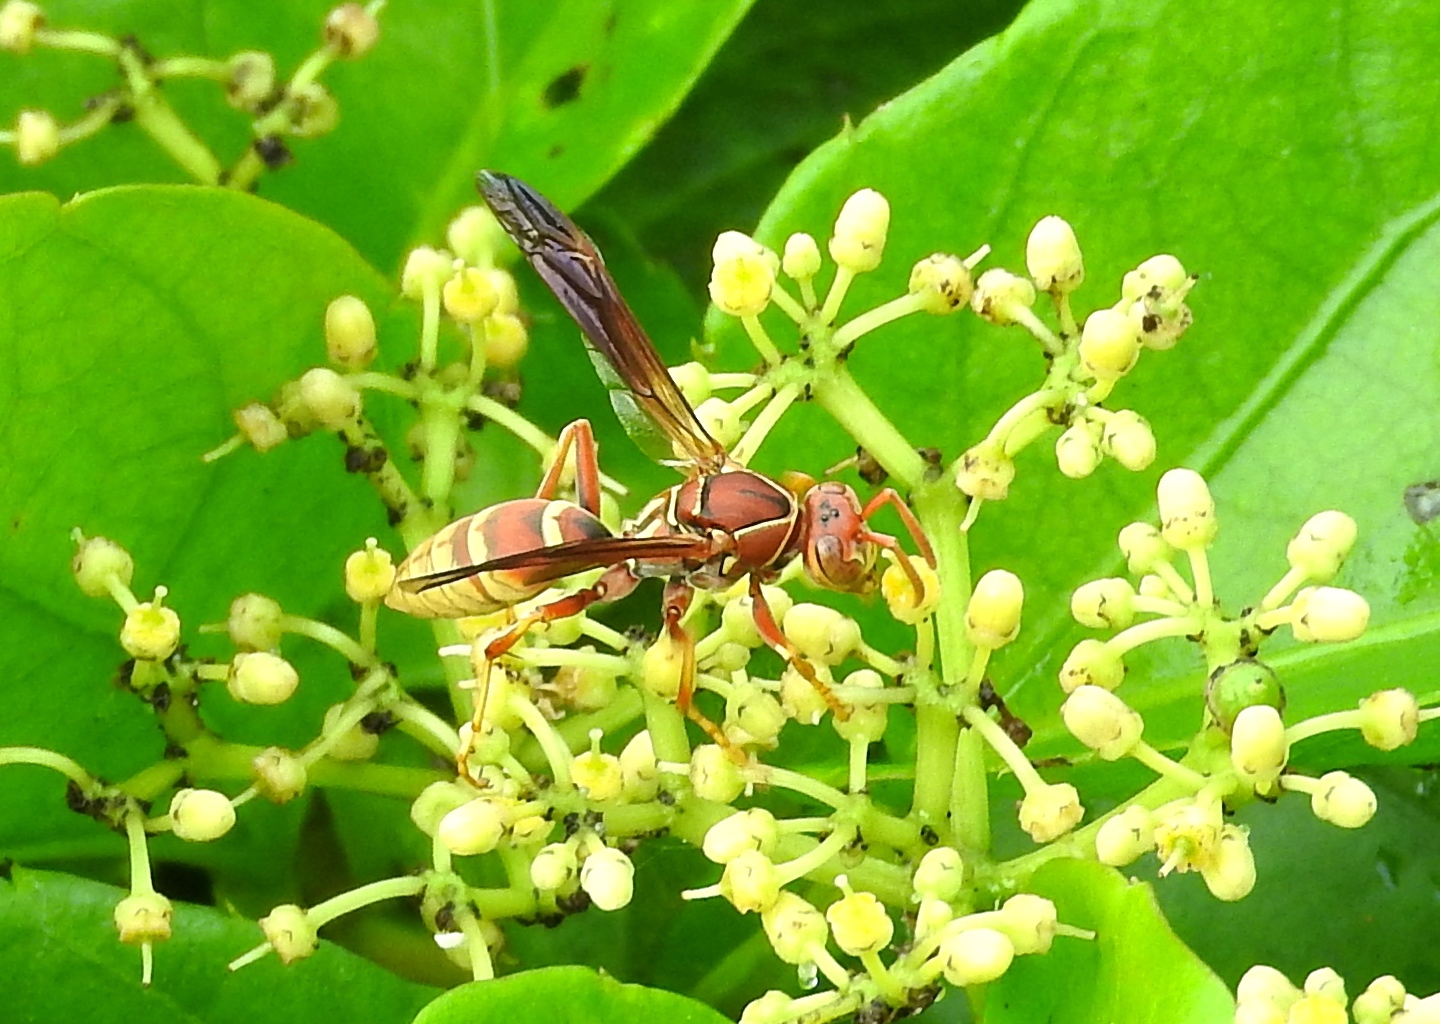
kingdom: Animalia
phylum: Arthropoda
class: Insecta
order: Hymenoptera
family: Eumenidae
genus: Polistes
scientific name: Polistes dorsalis
